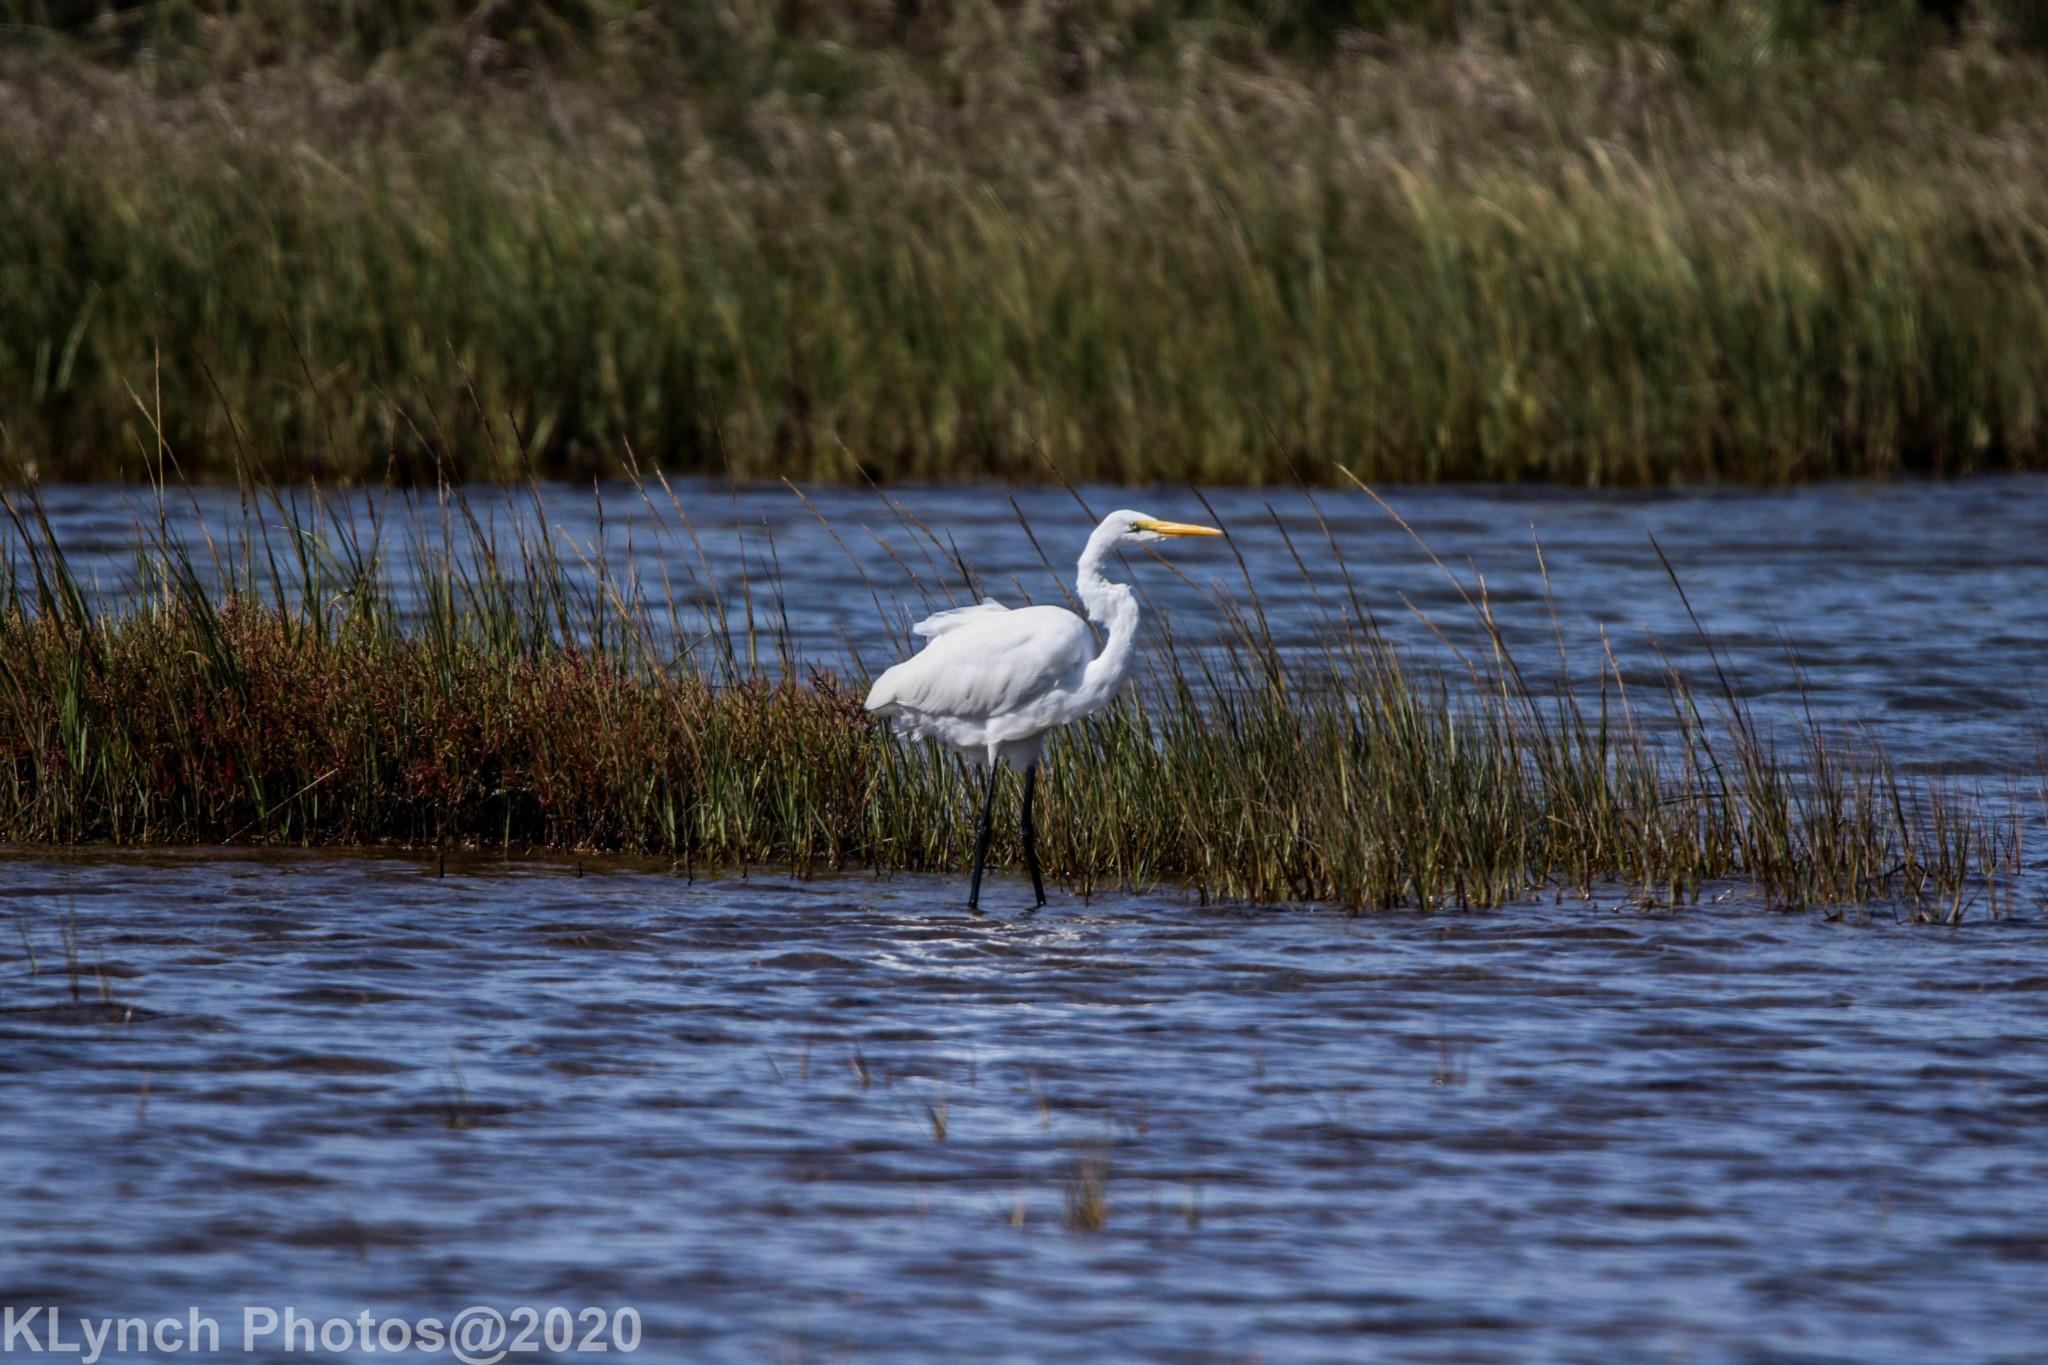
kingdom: Animalia
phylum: Chordata
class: Aves
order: Pelecaniformes
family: Ardeidae
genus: Ardea
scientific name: Ardea alba
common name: Great egret
